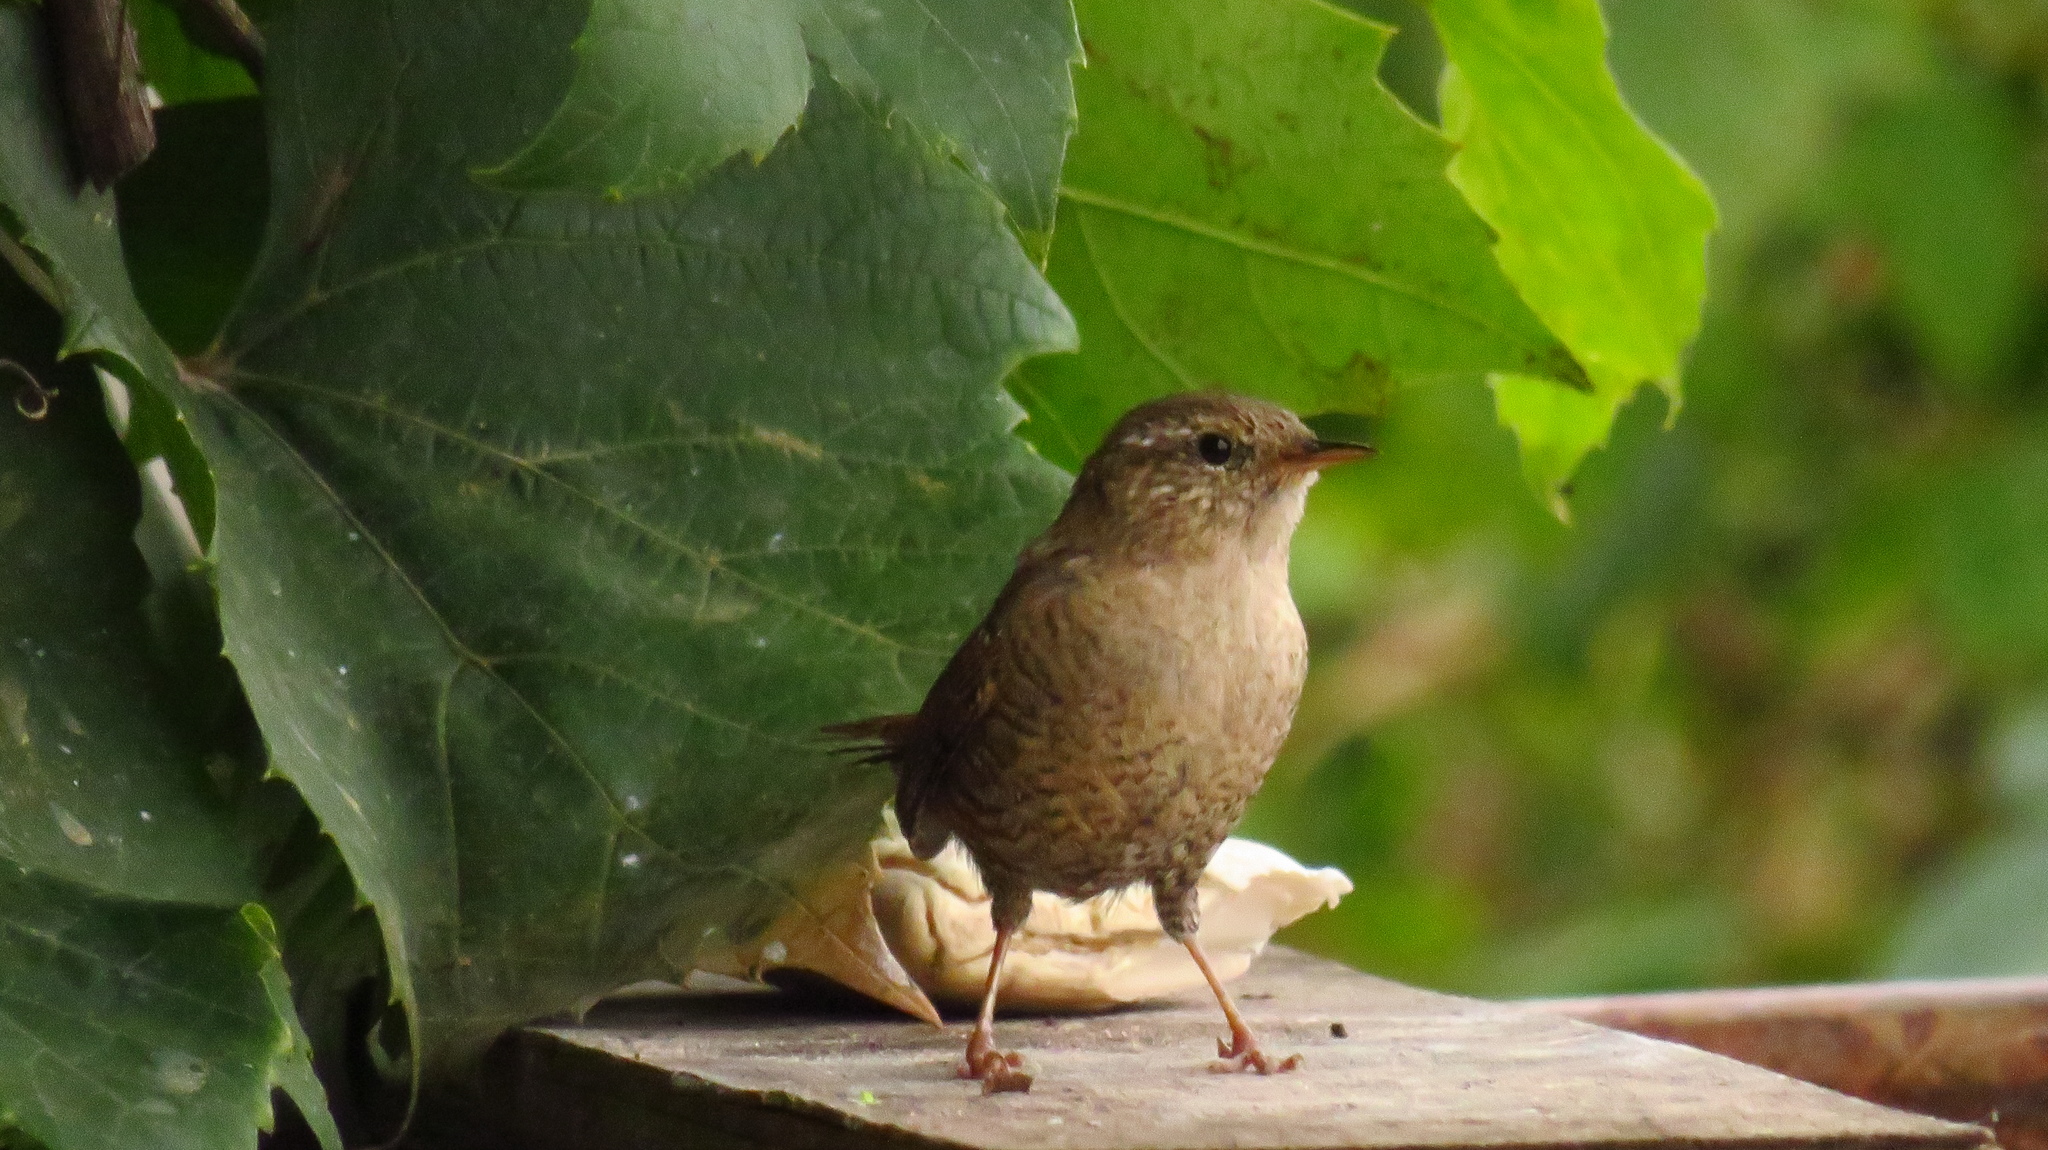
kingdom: Animalia
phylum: Chordata
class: Aves
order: Passeriformes
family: Troglodytidae
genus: Troglodytes
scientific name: Troglodytes troglodytes
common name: Eurasian wren
